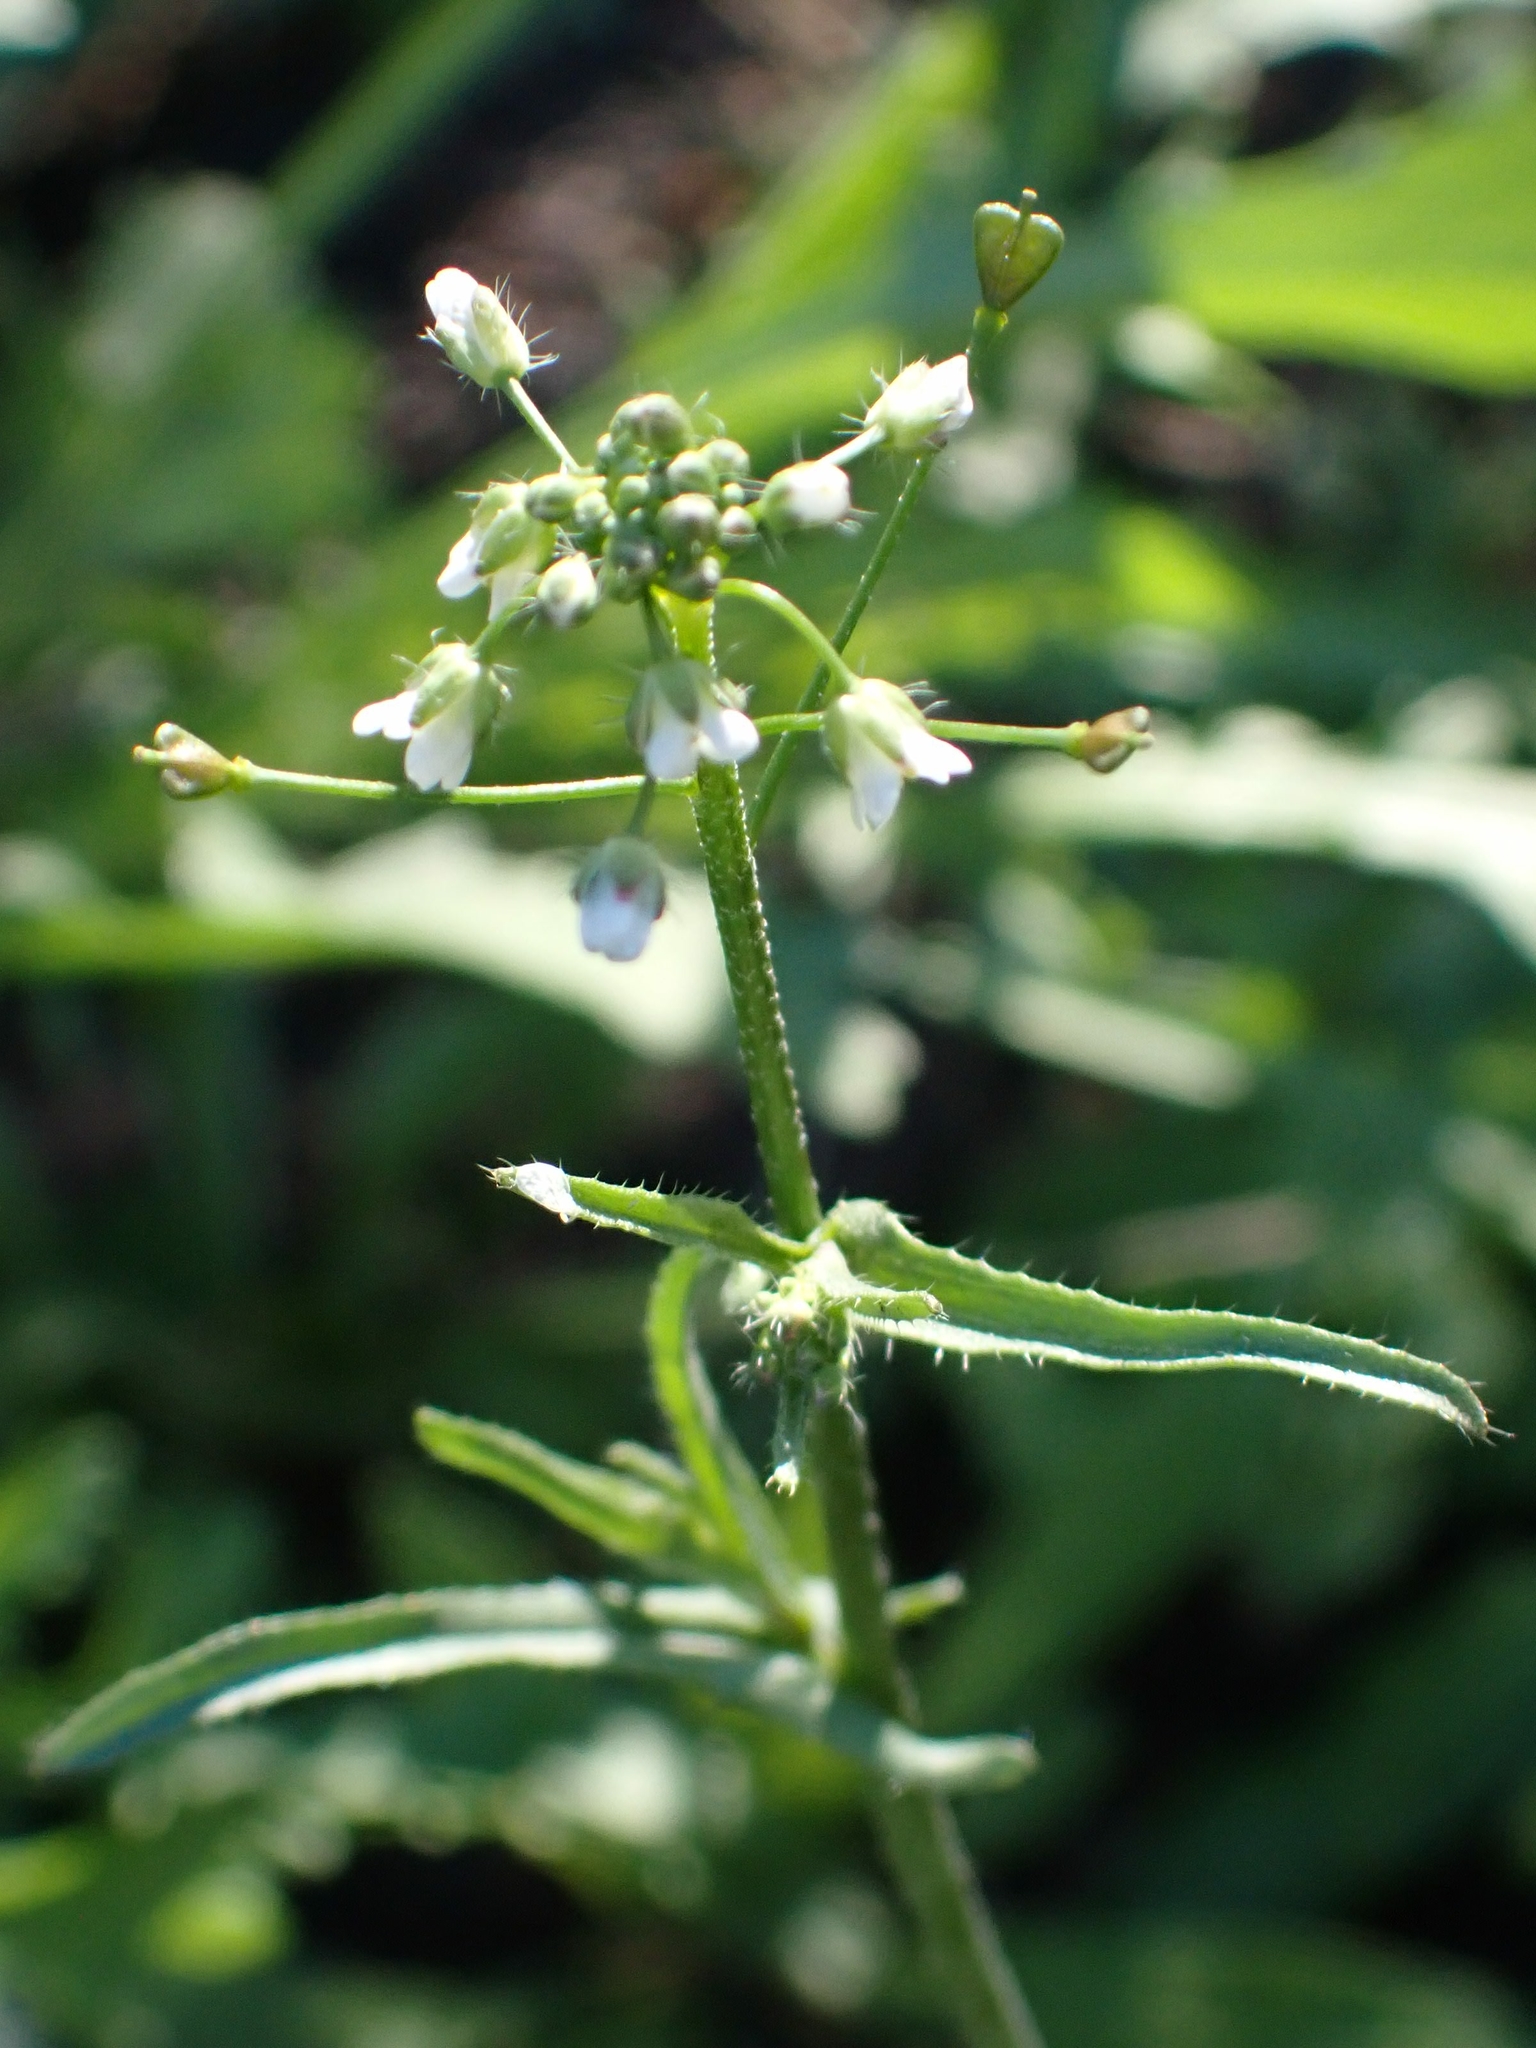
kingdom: Plantae
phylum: Tracheophyta
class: Magnoliopsida
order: Brassicales
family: Brassicaceae
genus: Capsella
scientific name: Capsella bursa-pastoris
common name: Shepherd's purse
